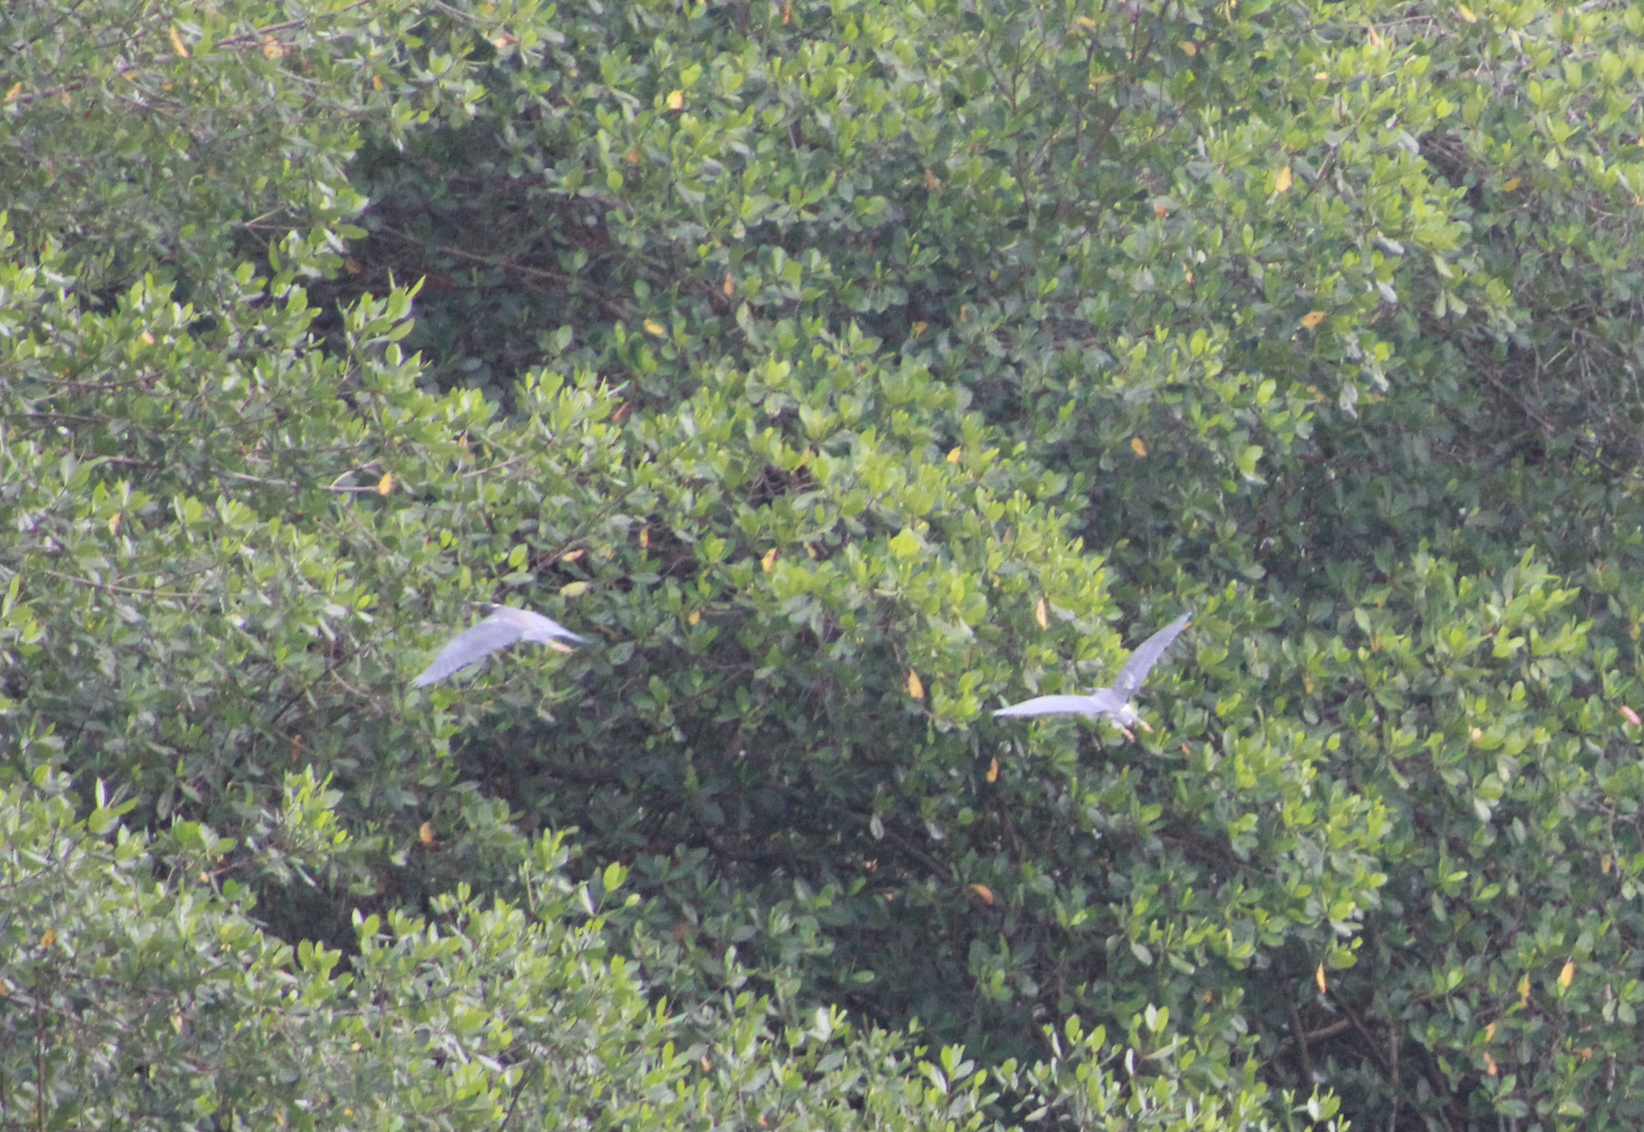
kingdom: Animalia
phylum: Chordata
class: Aves
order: Pelecaniformes
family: Ardeidae
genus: Egretta
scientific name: Egretta tricolor
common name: Tricolored heron
